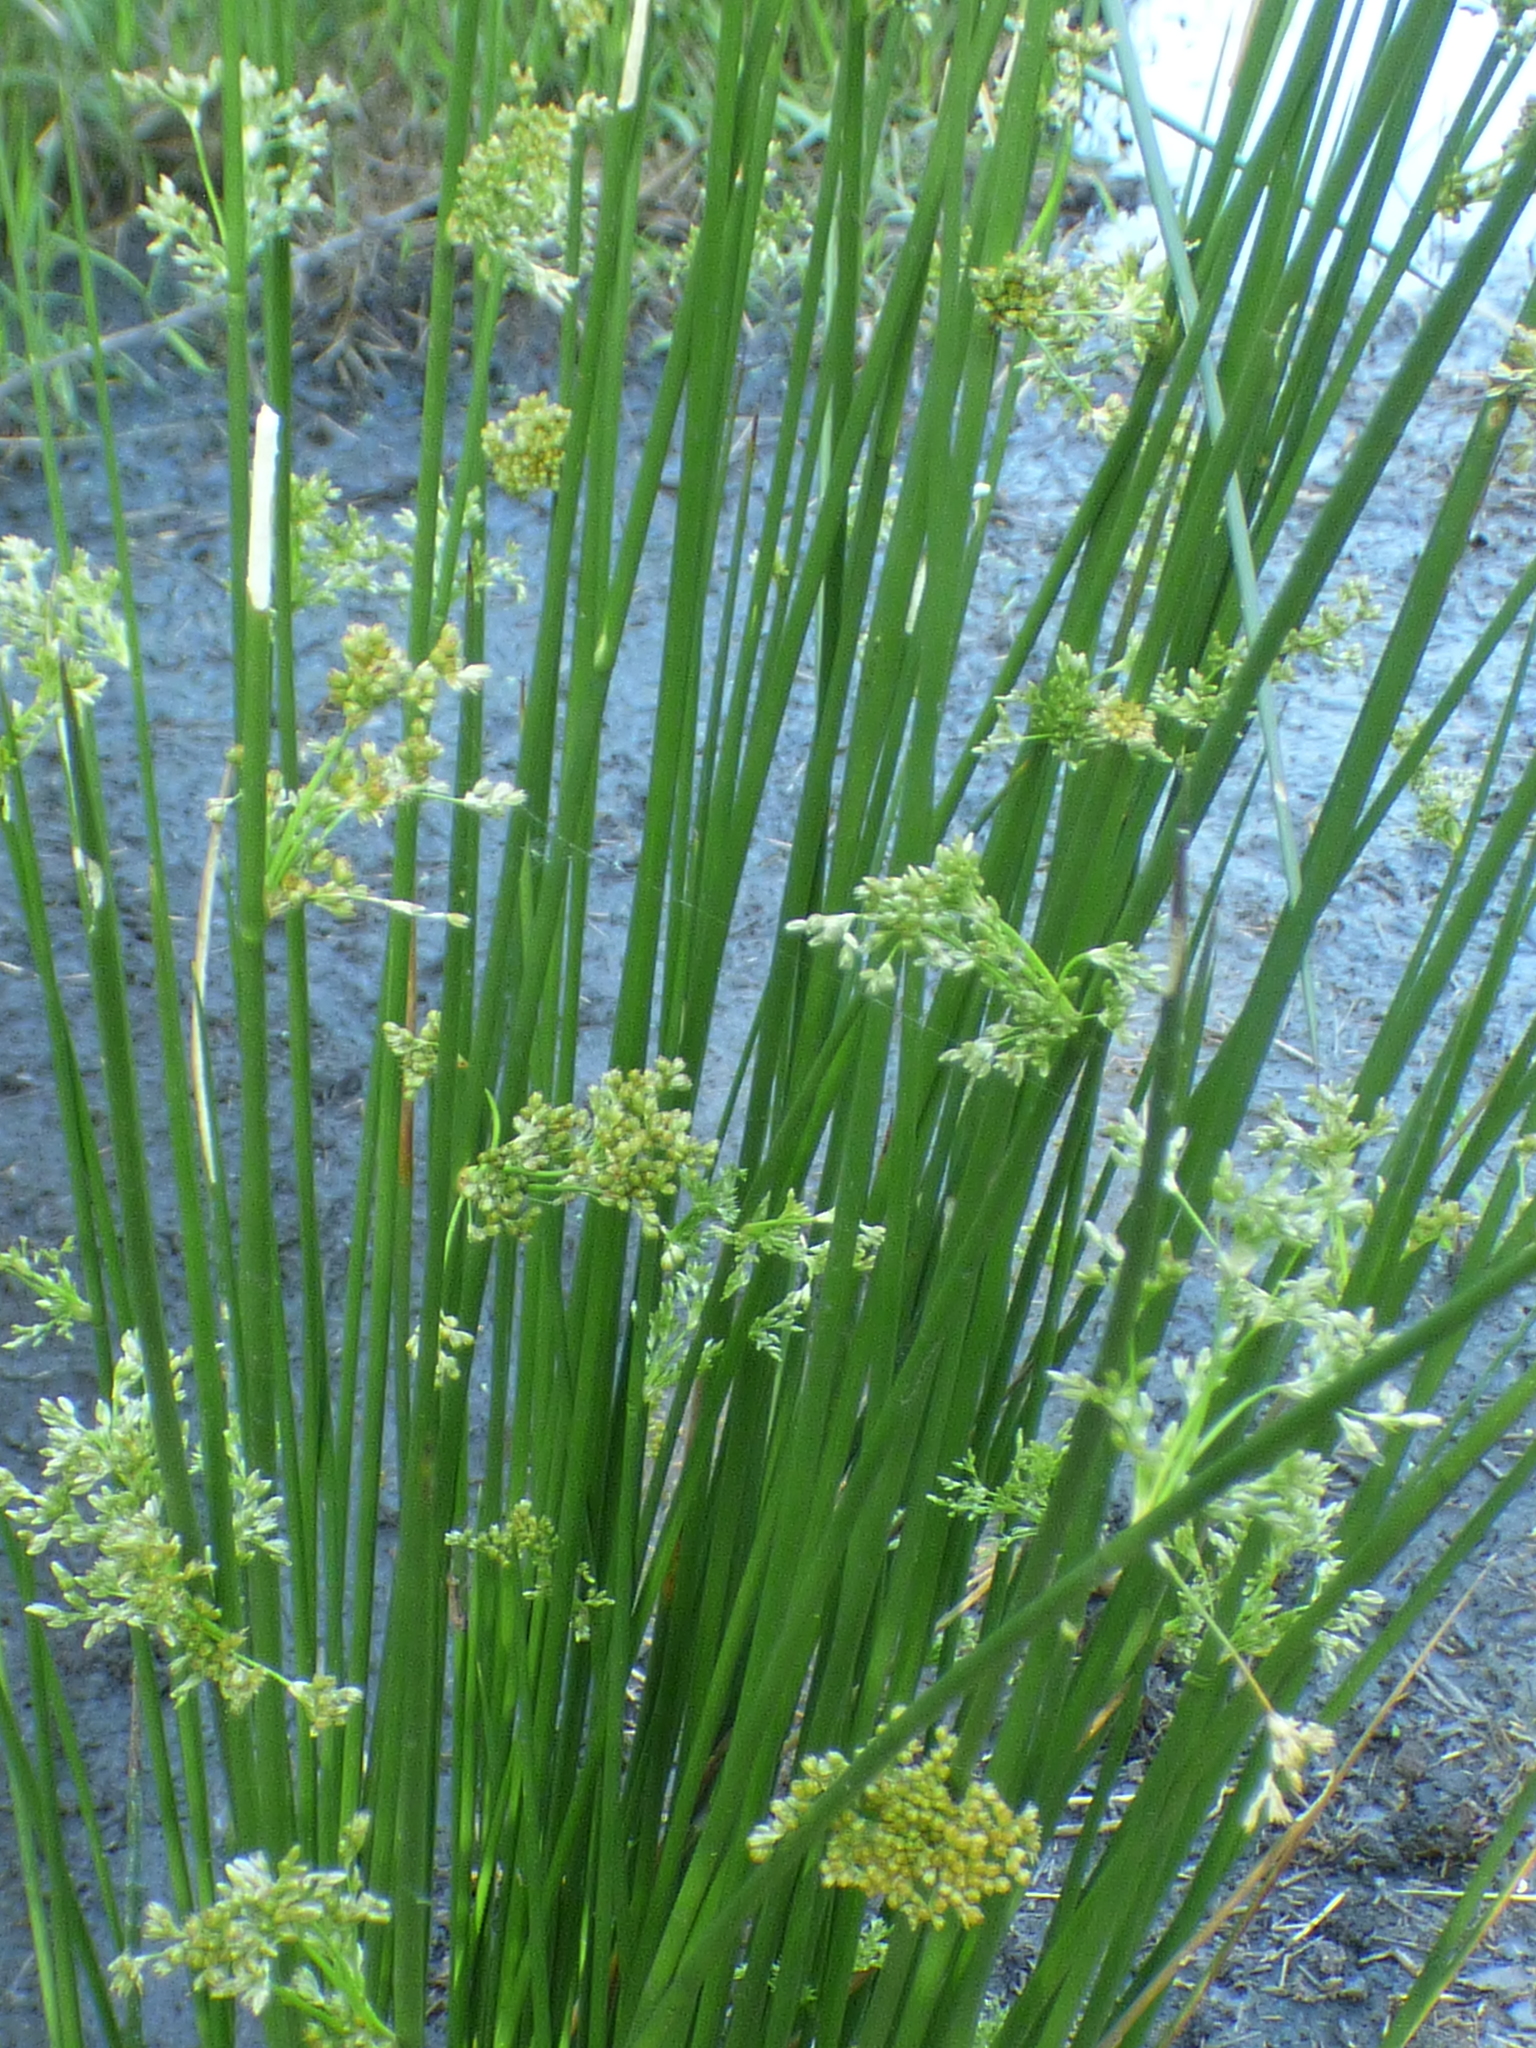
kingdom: Plantae
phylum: Tracheophyta
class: Liliopsida
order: Poales
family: Juncaceae
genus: Juncus
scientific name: Juncus effusus
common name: Soft rush
